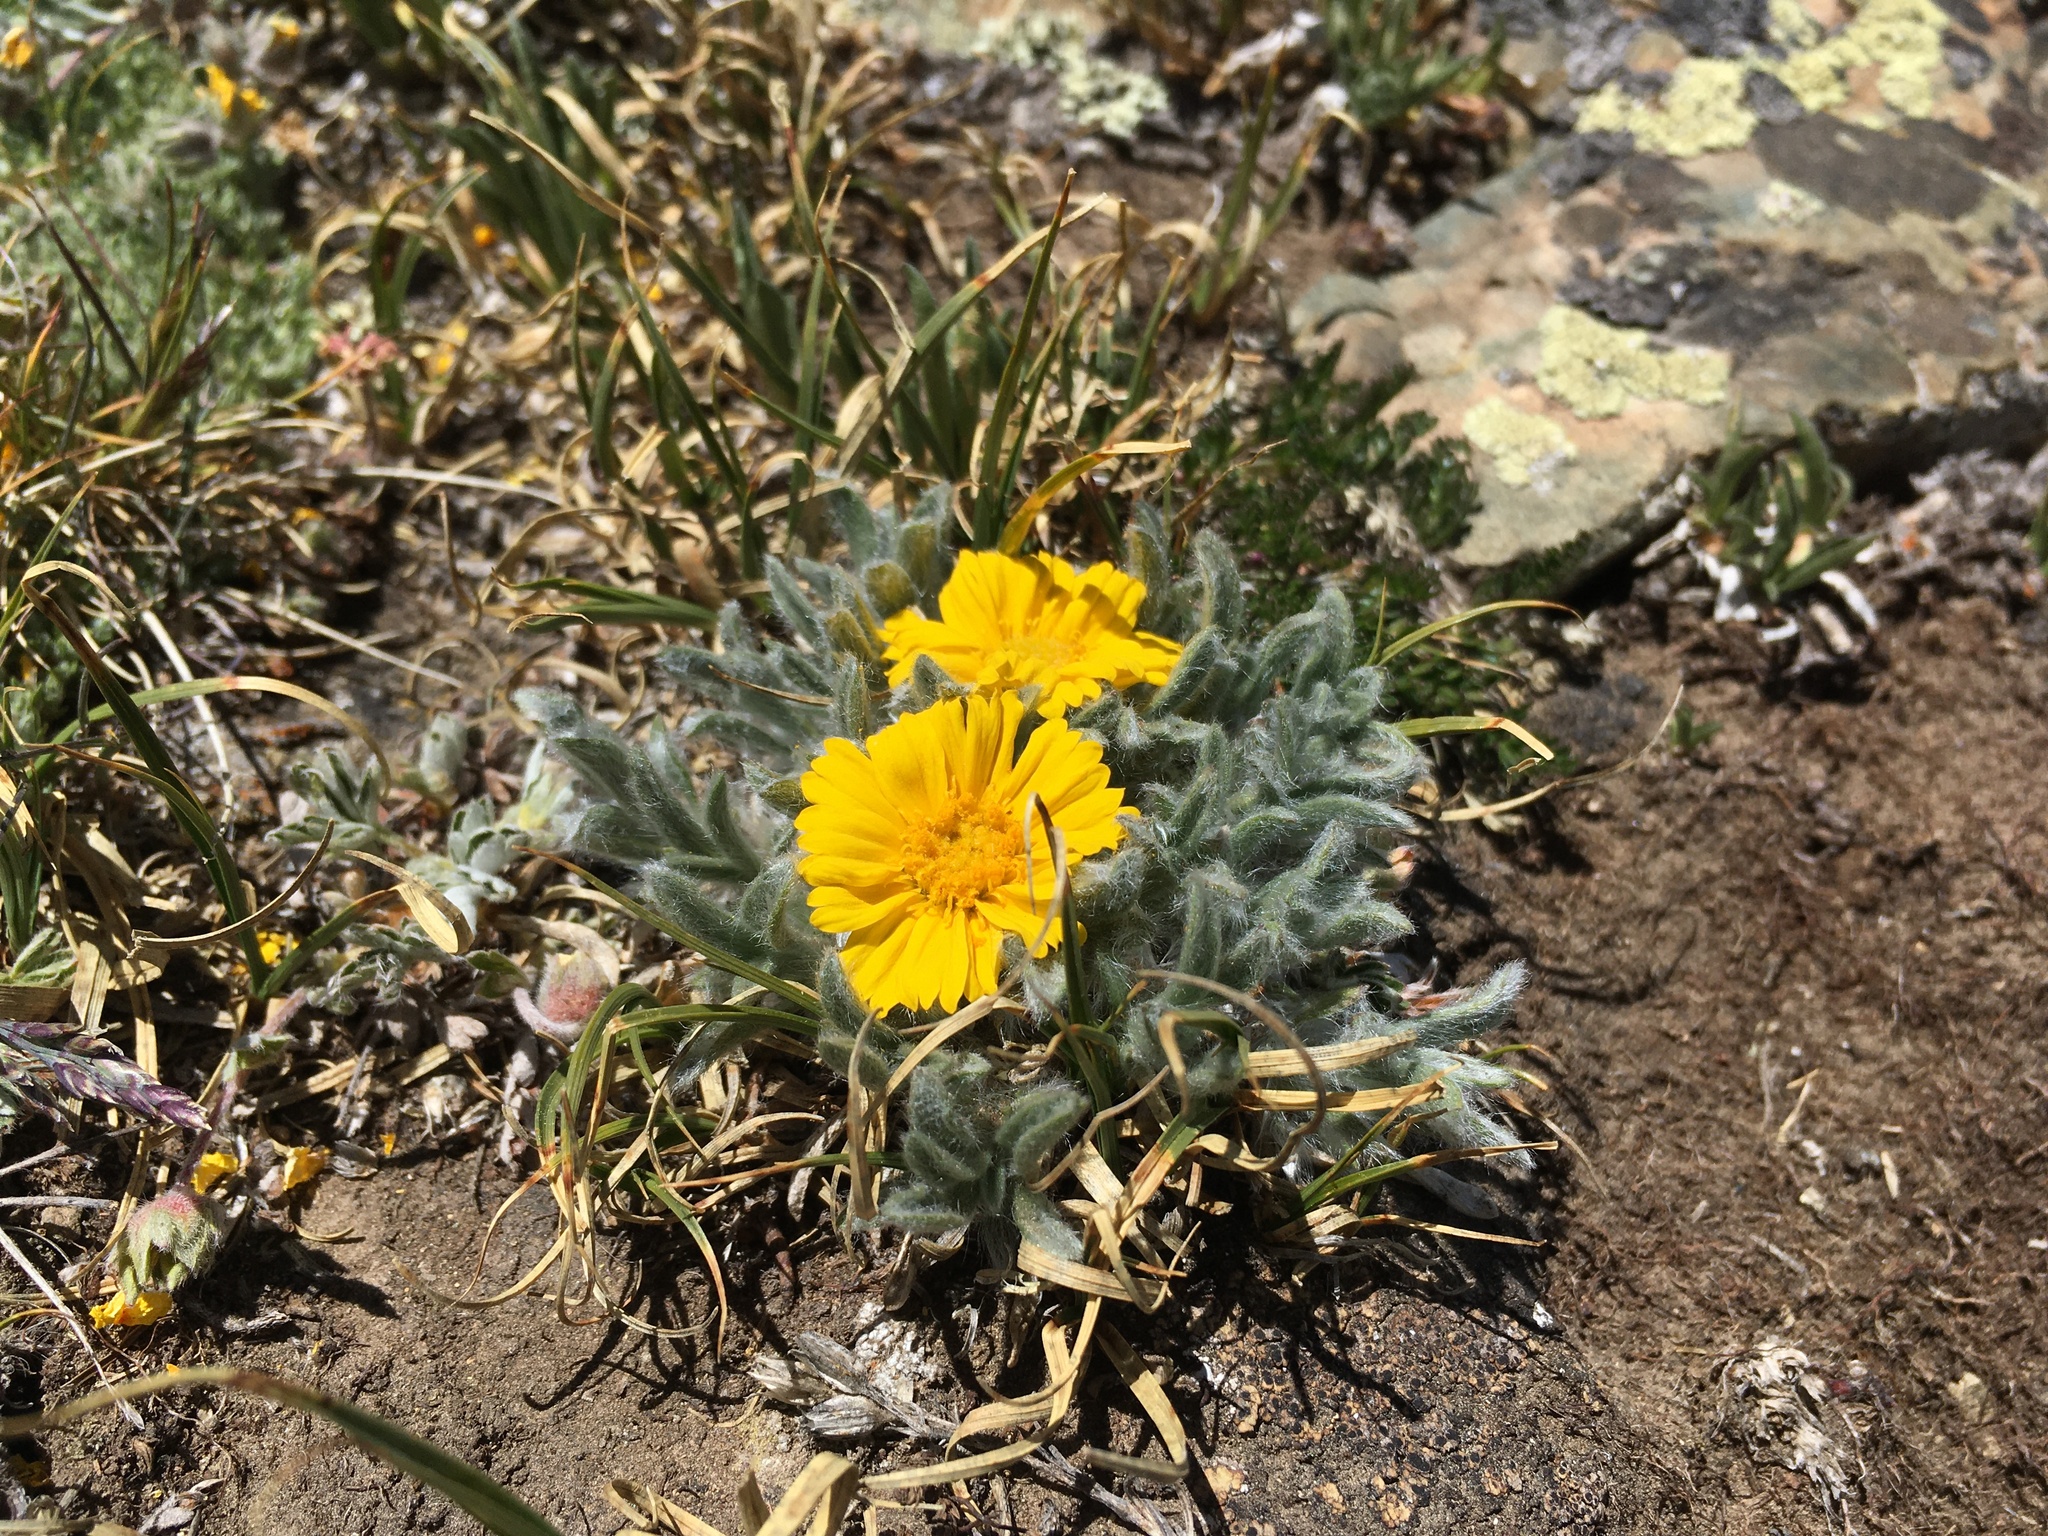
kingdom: Plantae
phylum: Tracheophyta
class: Magnoliopsida
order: Asterales
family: Asteraceae
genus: Tetraneuris
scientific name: Tetraneuris acaulis
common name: Butte marigold
